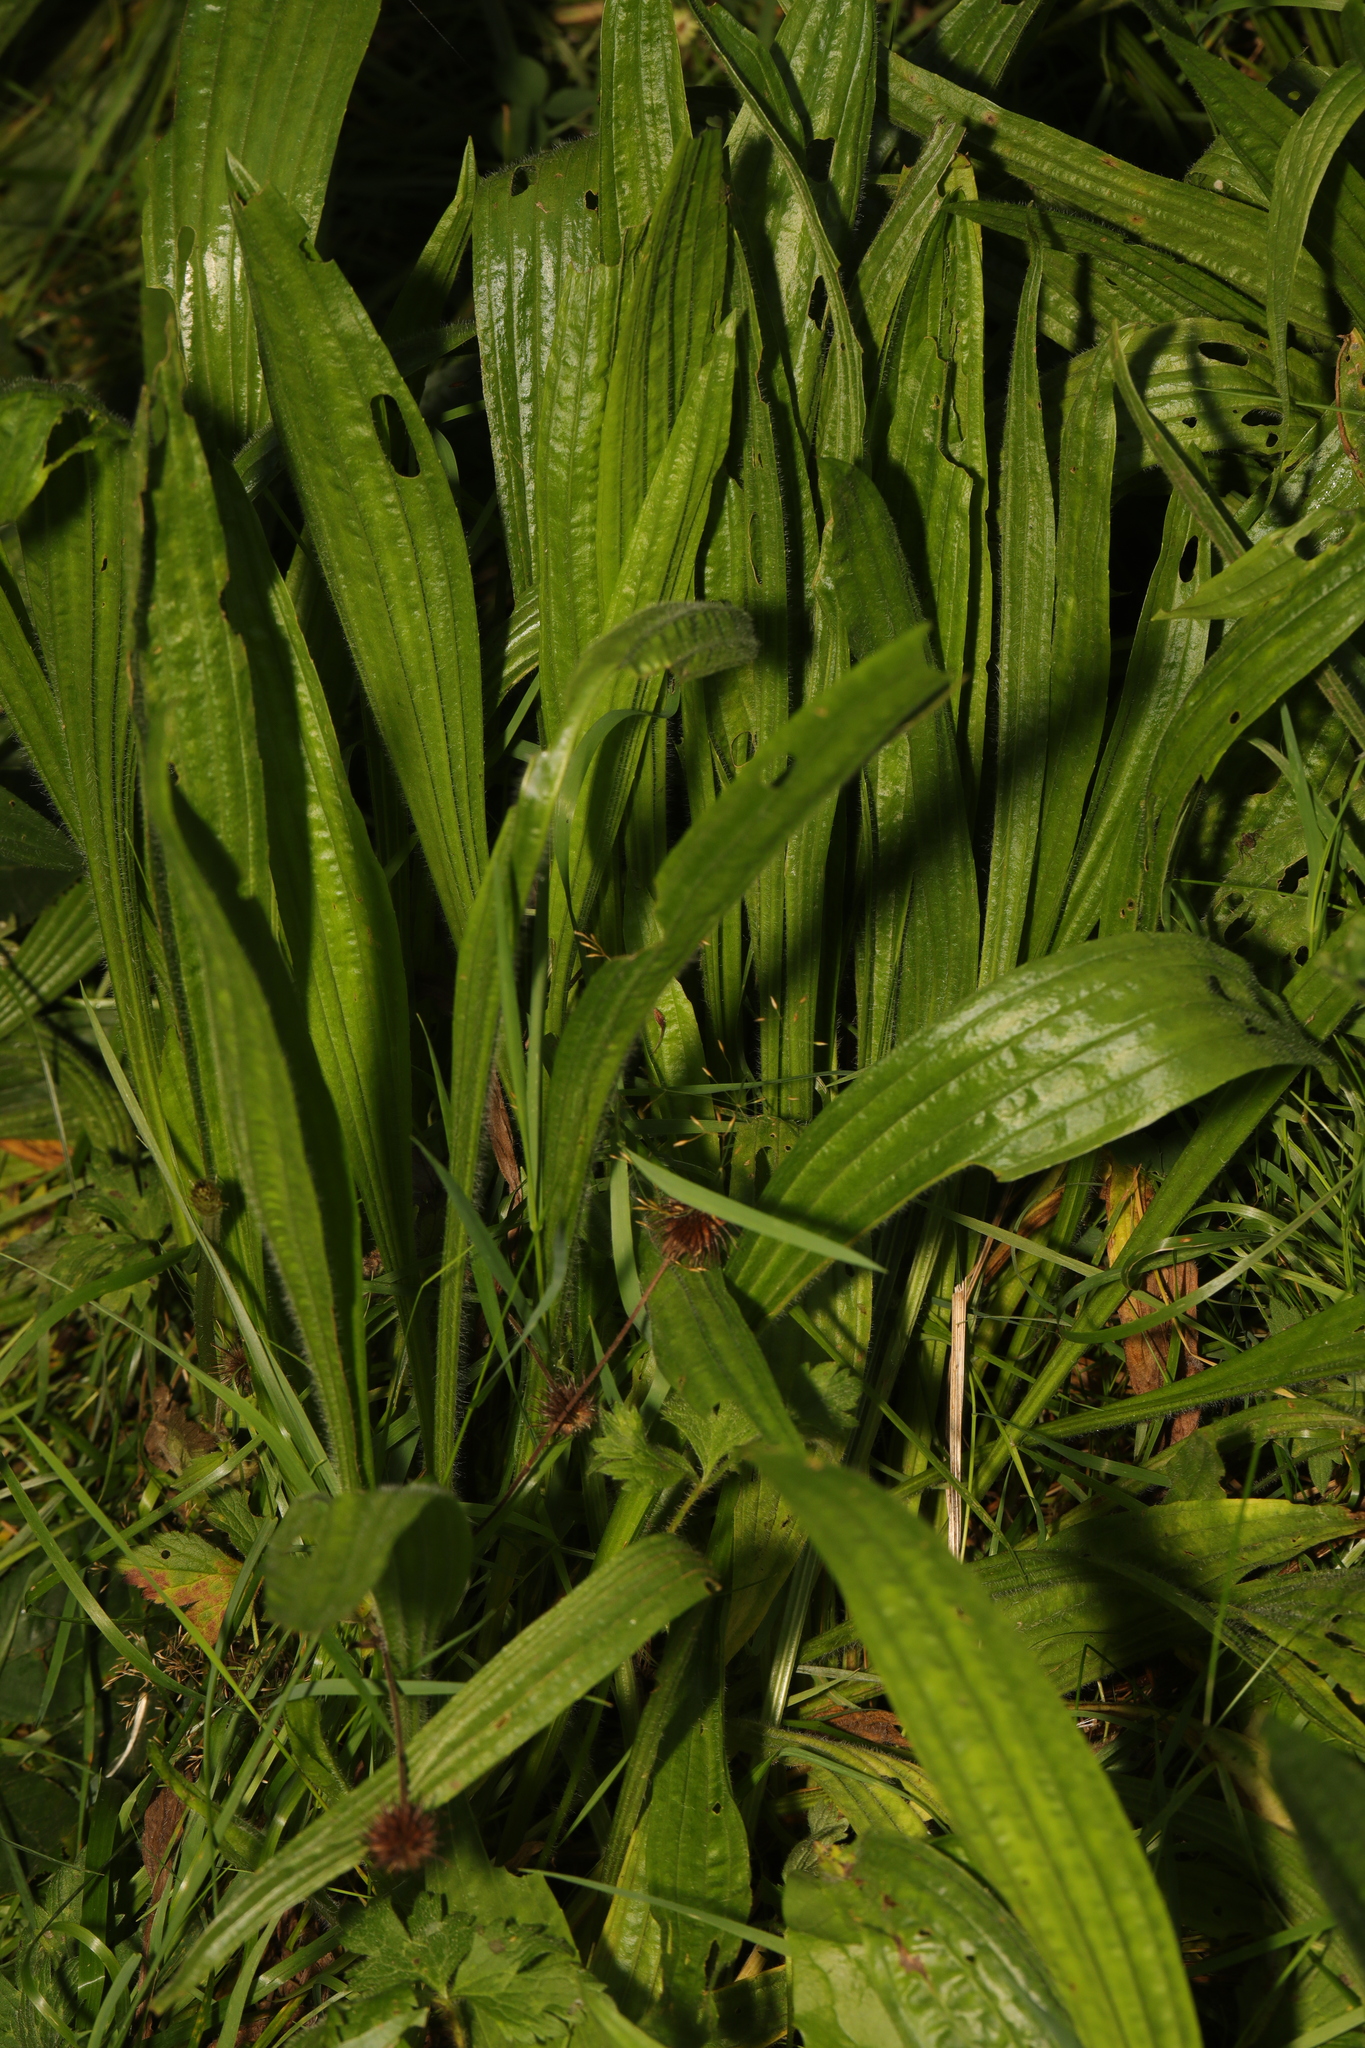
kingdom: Plantae
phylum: Tracheophyta
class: Magnoliopsida
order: Lamiales
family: Plantaginaceae
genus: Plantago
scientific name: Plantago lanceolata
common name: Ribwort plantain
